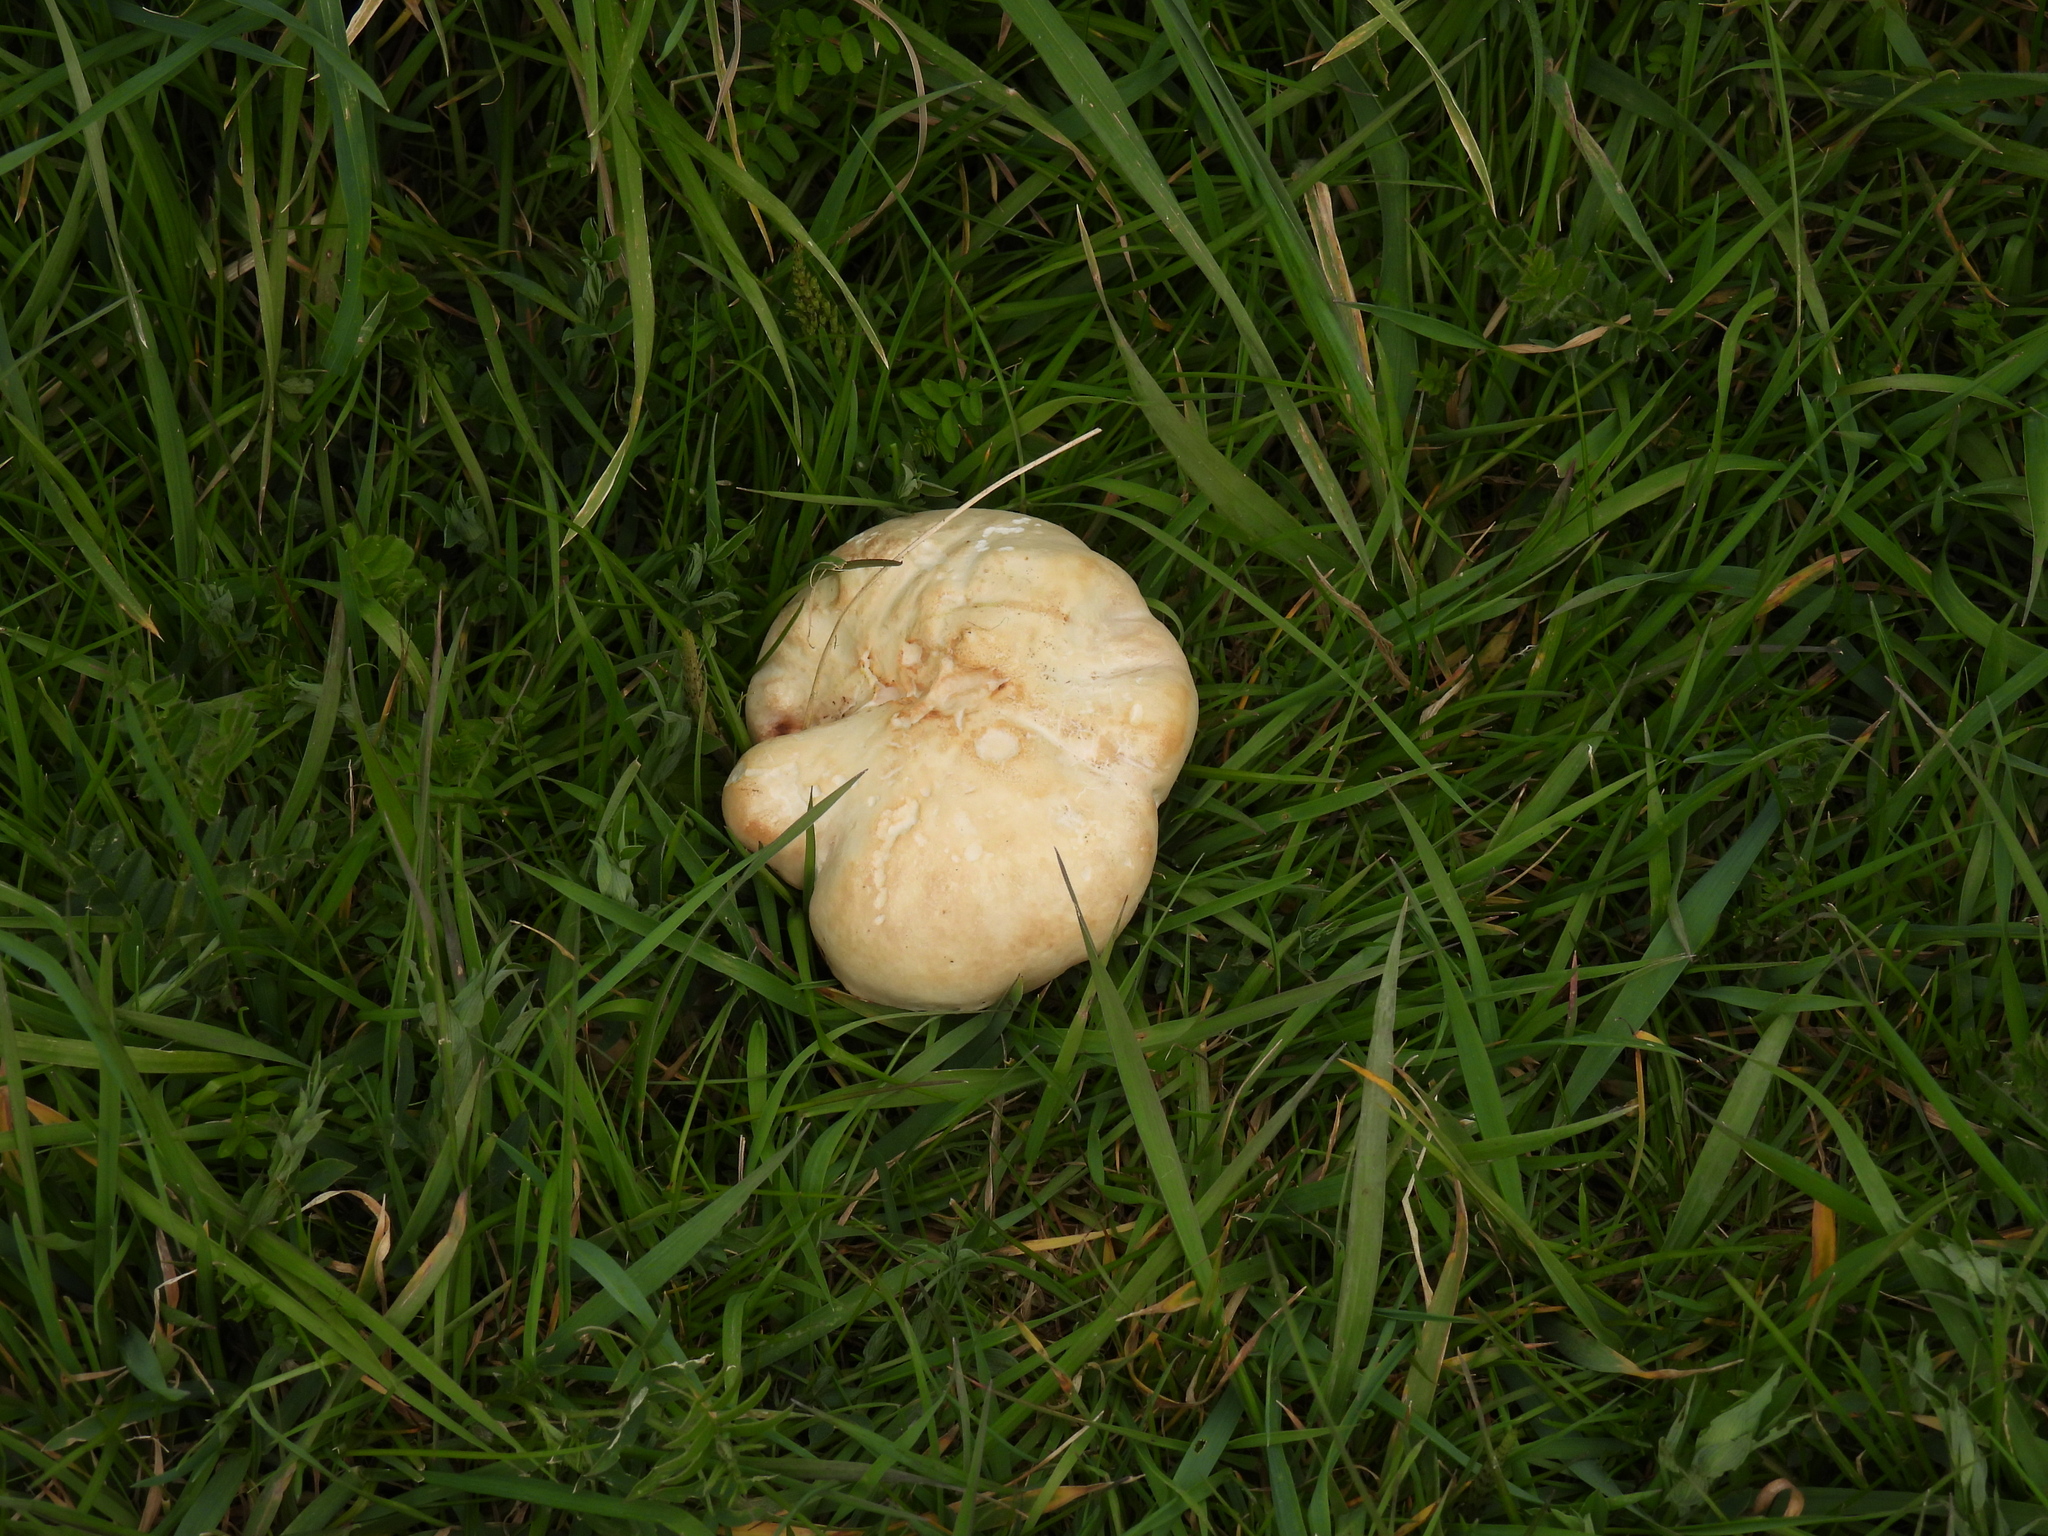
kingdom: Fungi
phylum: Basidiomycota
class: Agaricomycetes
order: Agaricales
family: Lyophyllaceae
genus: Calocybe
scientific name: Calocybe gambosa
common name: St. george's mushroom
